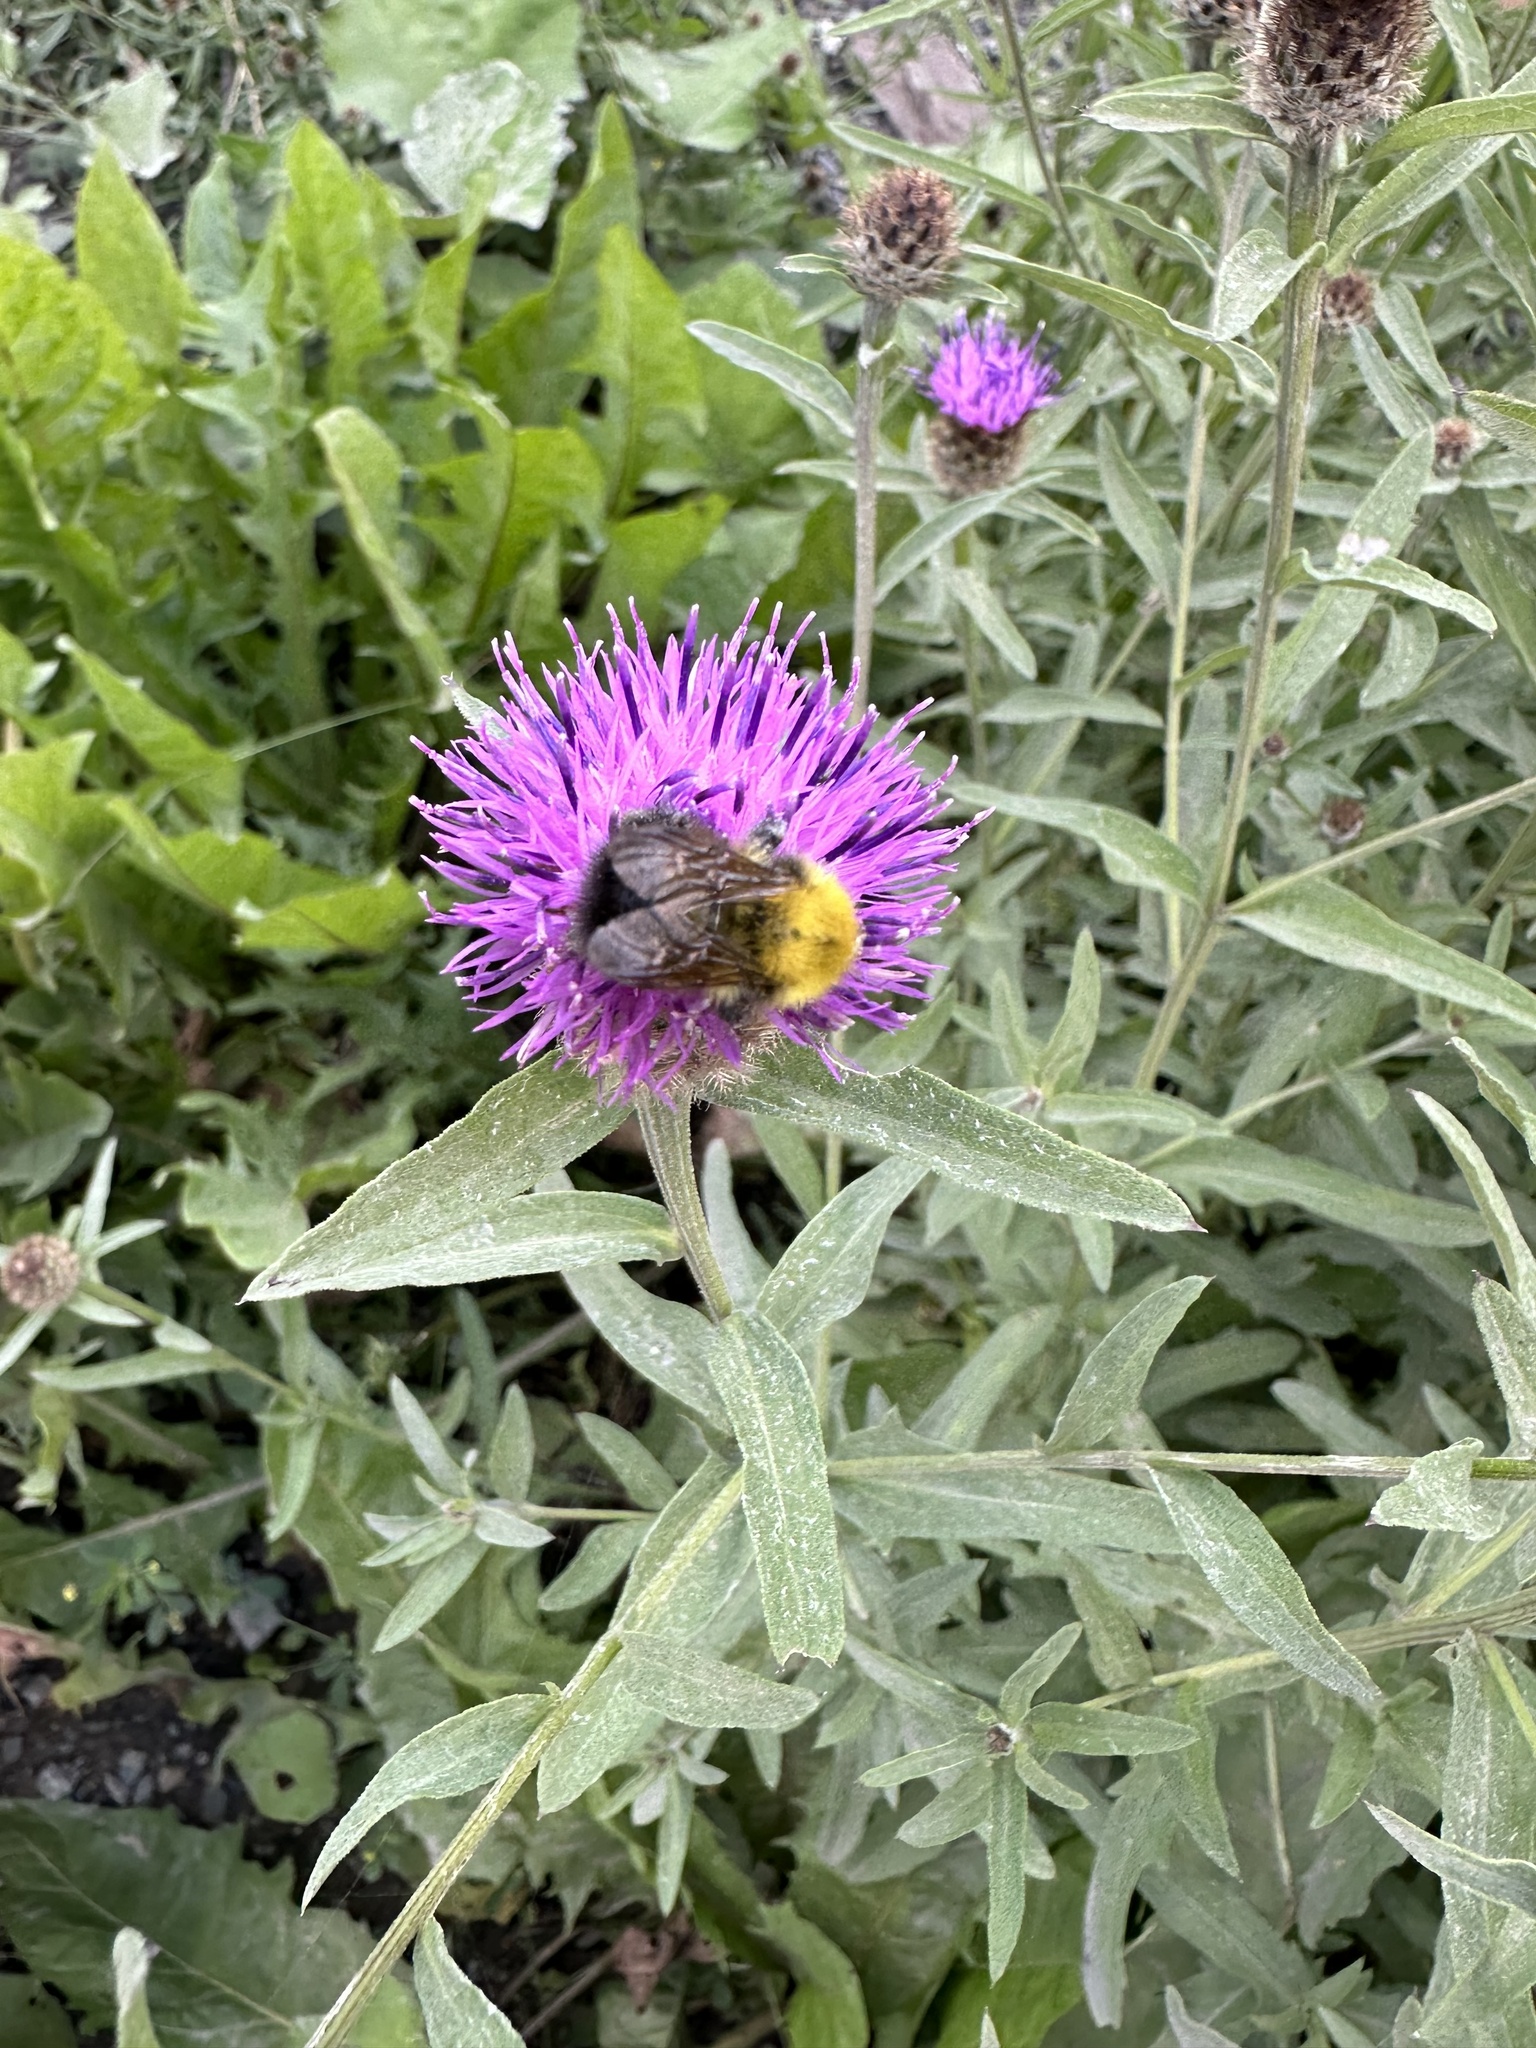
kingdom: Animalia
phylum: Arthropoda
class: Insecta
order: Hymenoptera
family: Apidae
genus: Bombus
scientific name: Bombus perplexus
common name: Confusing bumble bee
